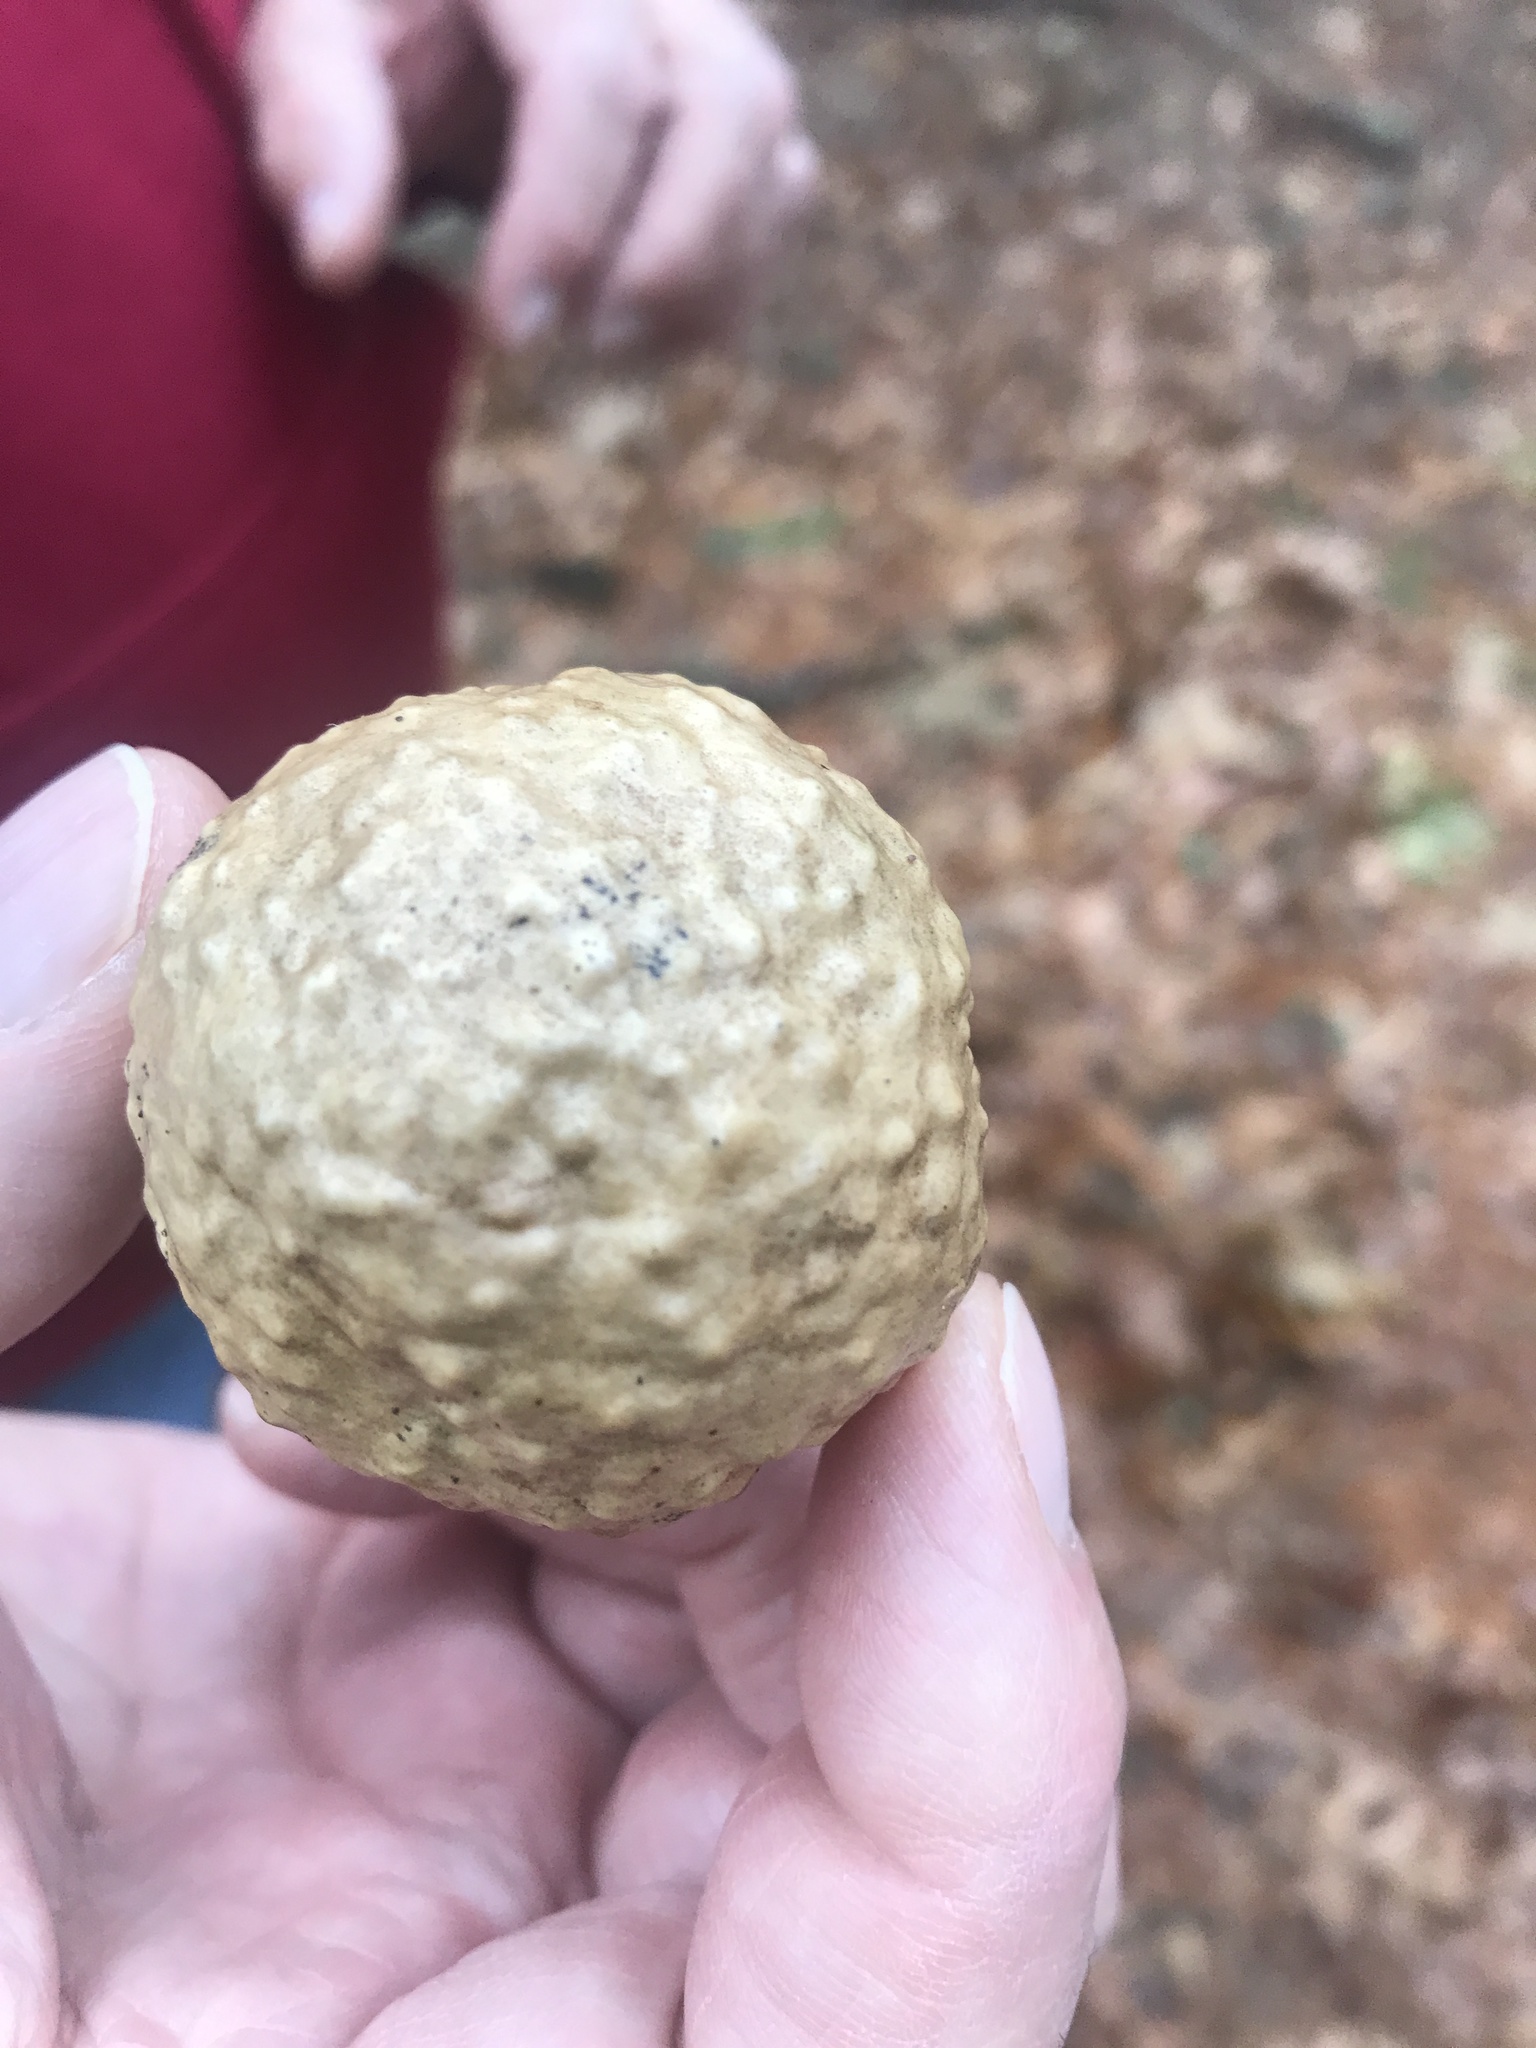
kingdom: Animalia
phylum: Arthropoda
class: Insecta
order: Hymenoptera
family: Cynipidae
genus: Amphibolips
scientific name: Amphibolips
